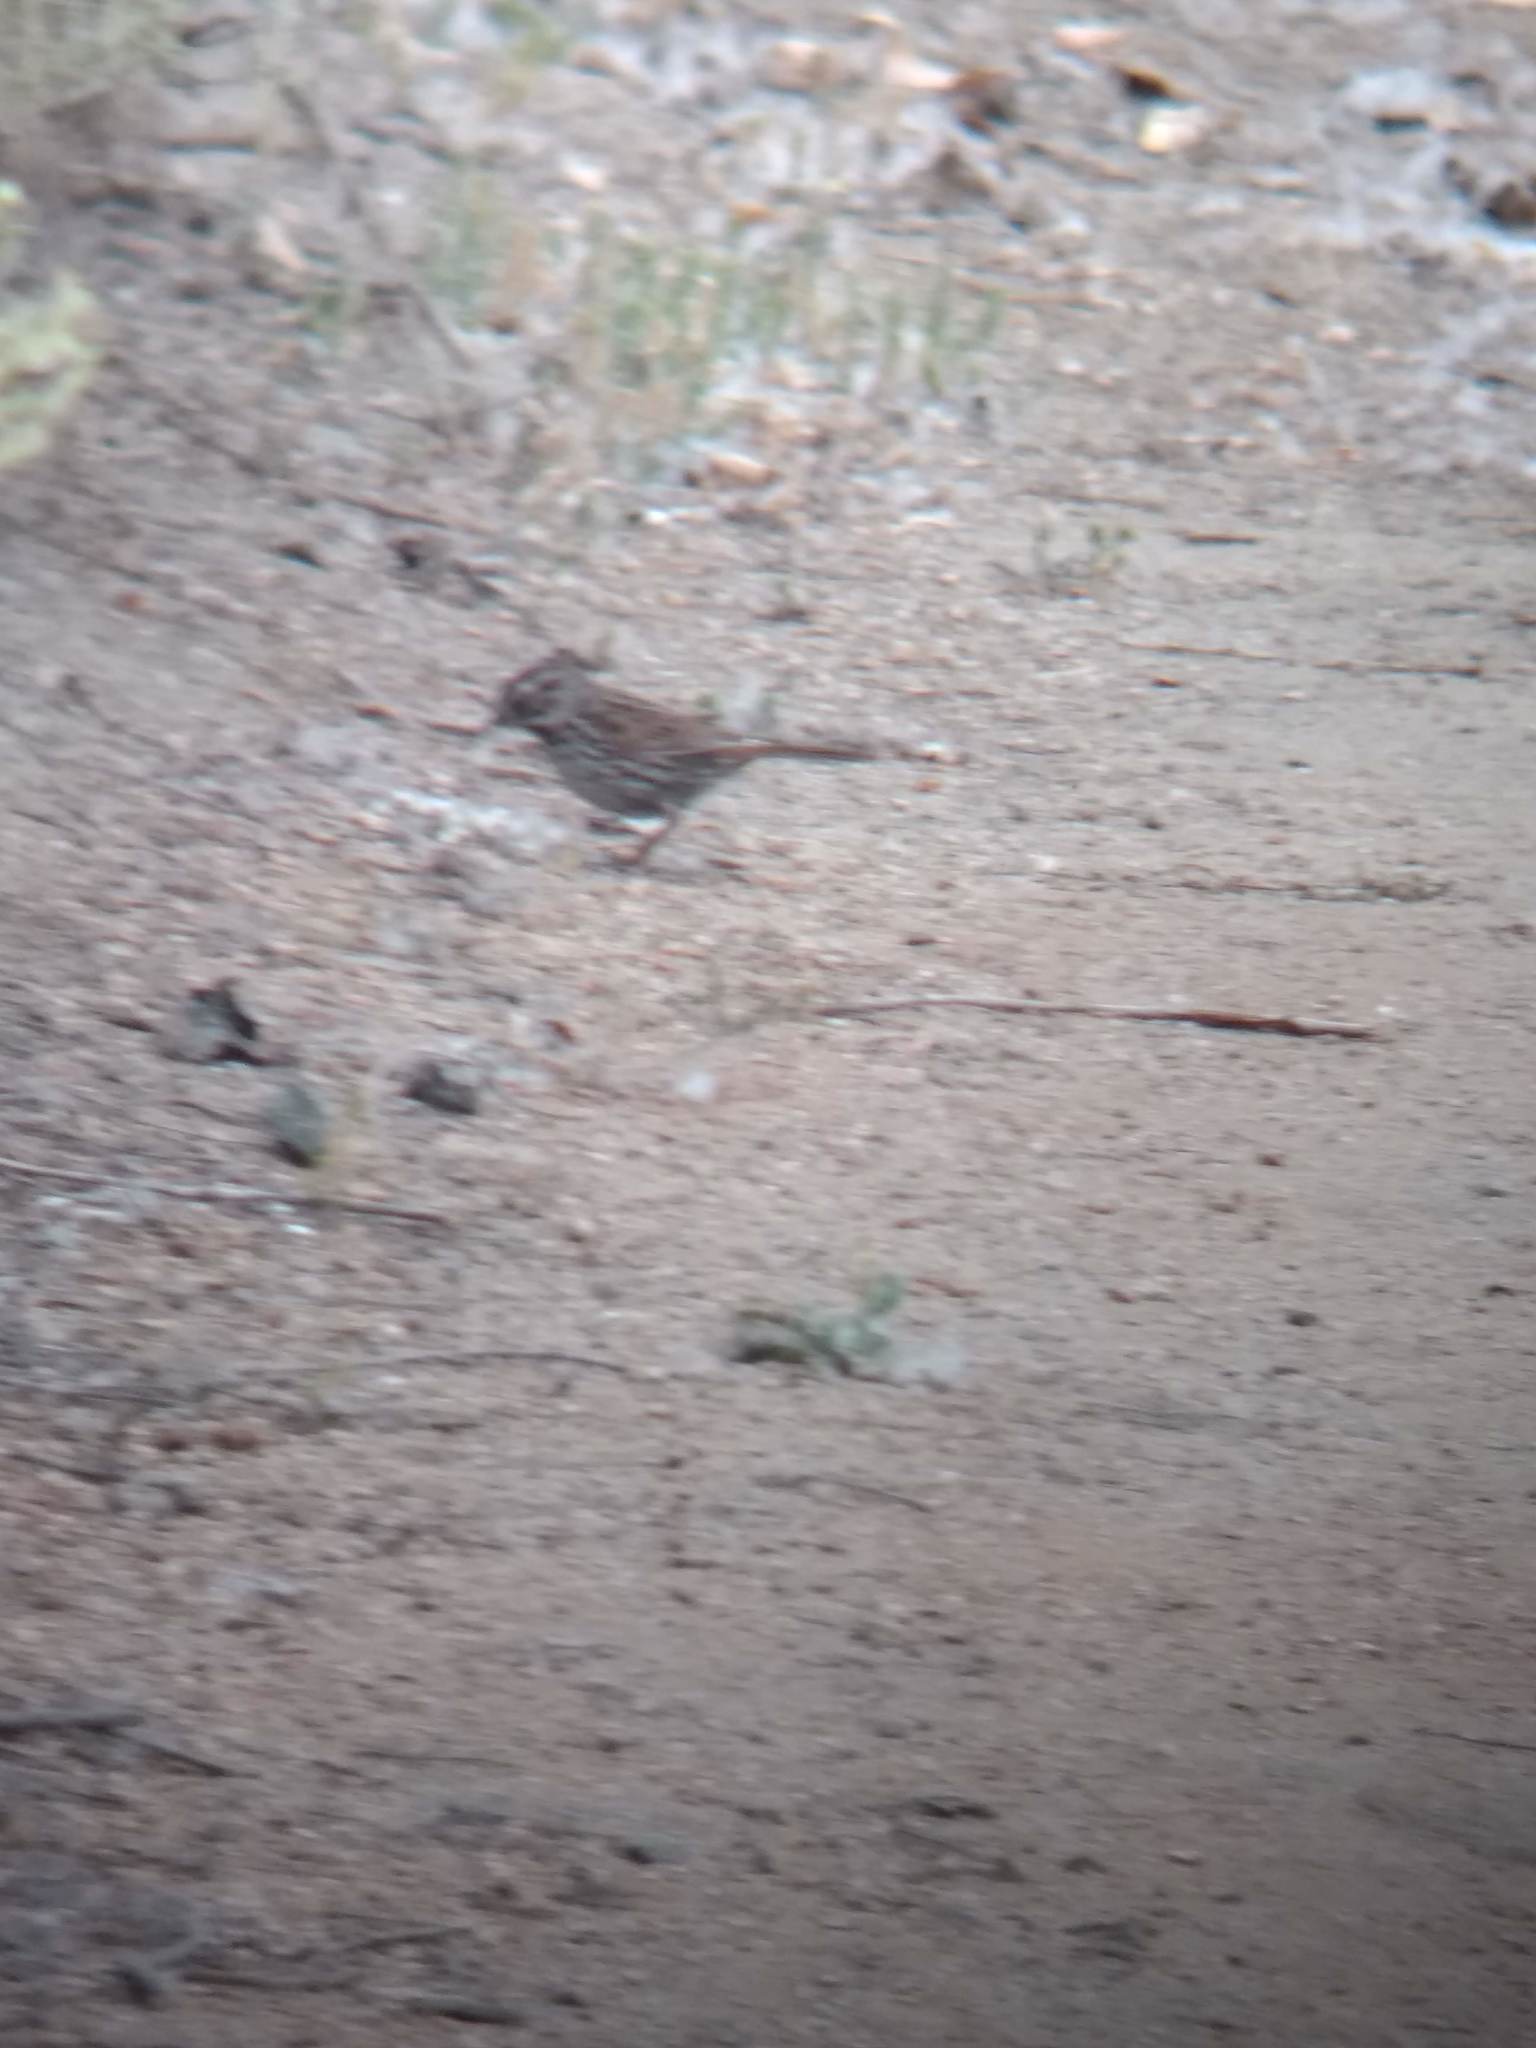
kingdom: Animalia
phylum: Chordata
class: Aves
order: Passeriformes
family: Passerellidae
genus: Melospiza
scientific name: Melospiza melodia
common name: Song sparrow
